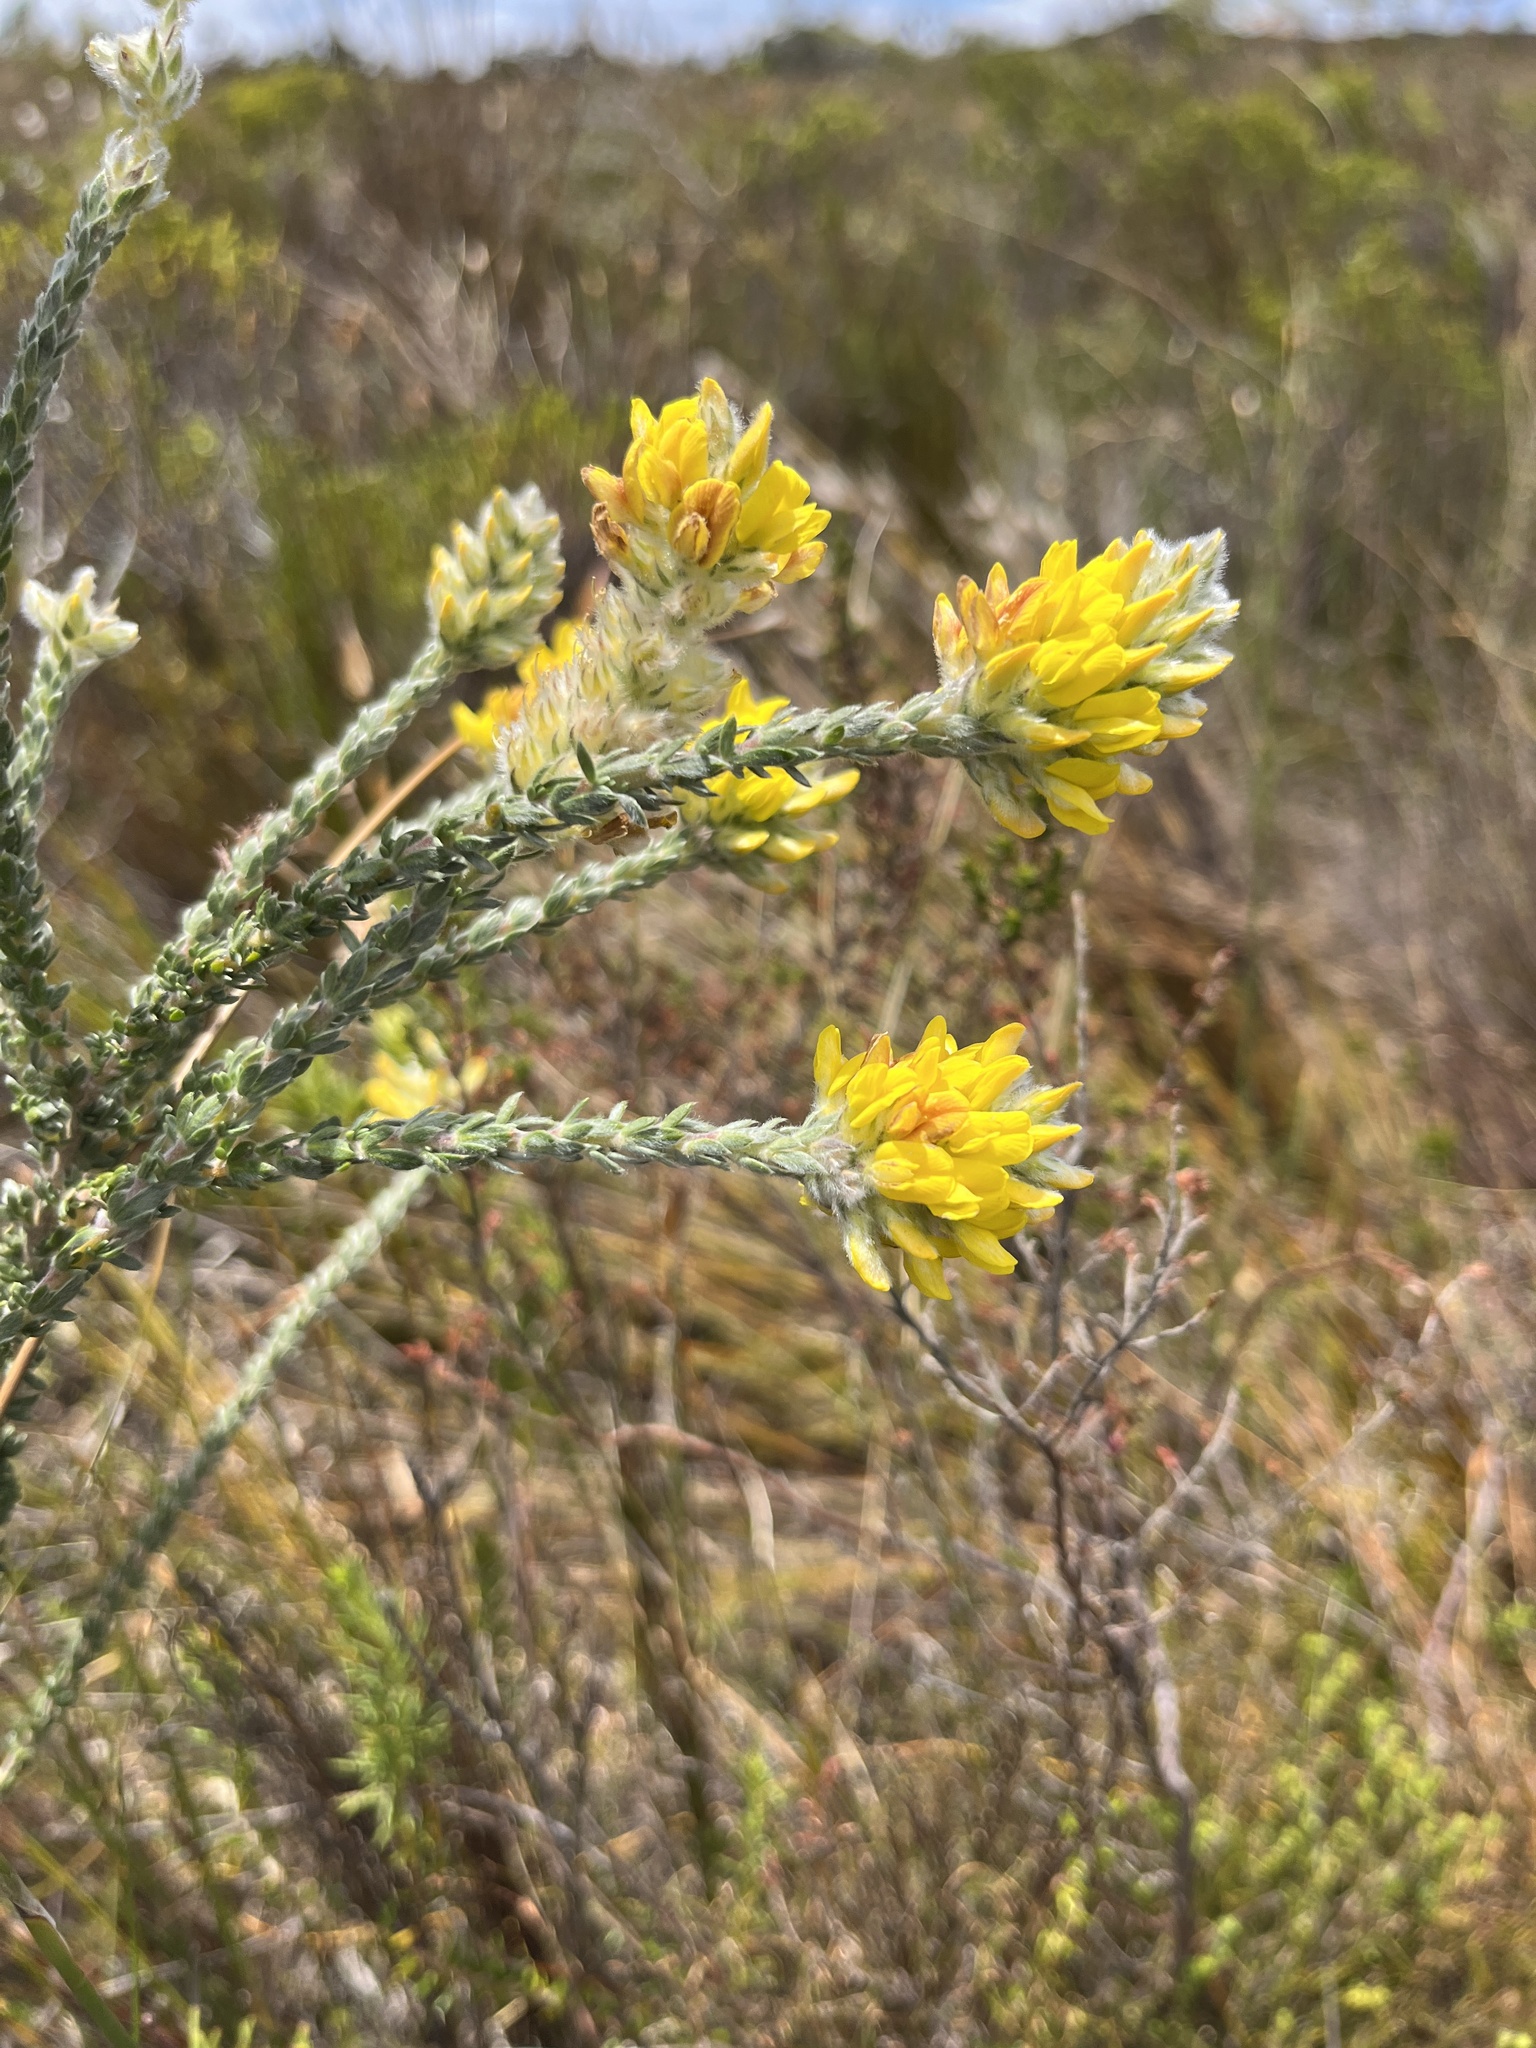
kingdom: Plantae
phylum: Tracheophyta
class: Magnoliopsida
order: Fabales
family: Fabaceae
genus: Aspalathus
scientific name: Aspalathus quinquefolia
